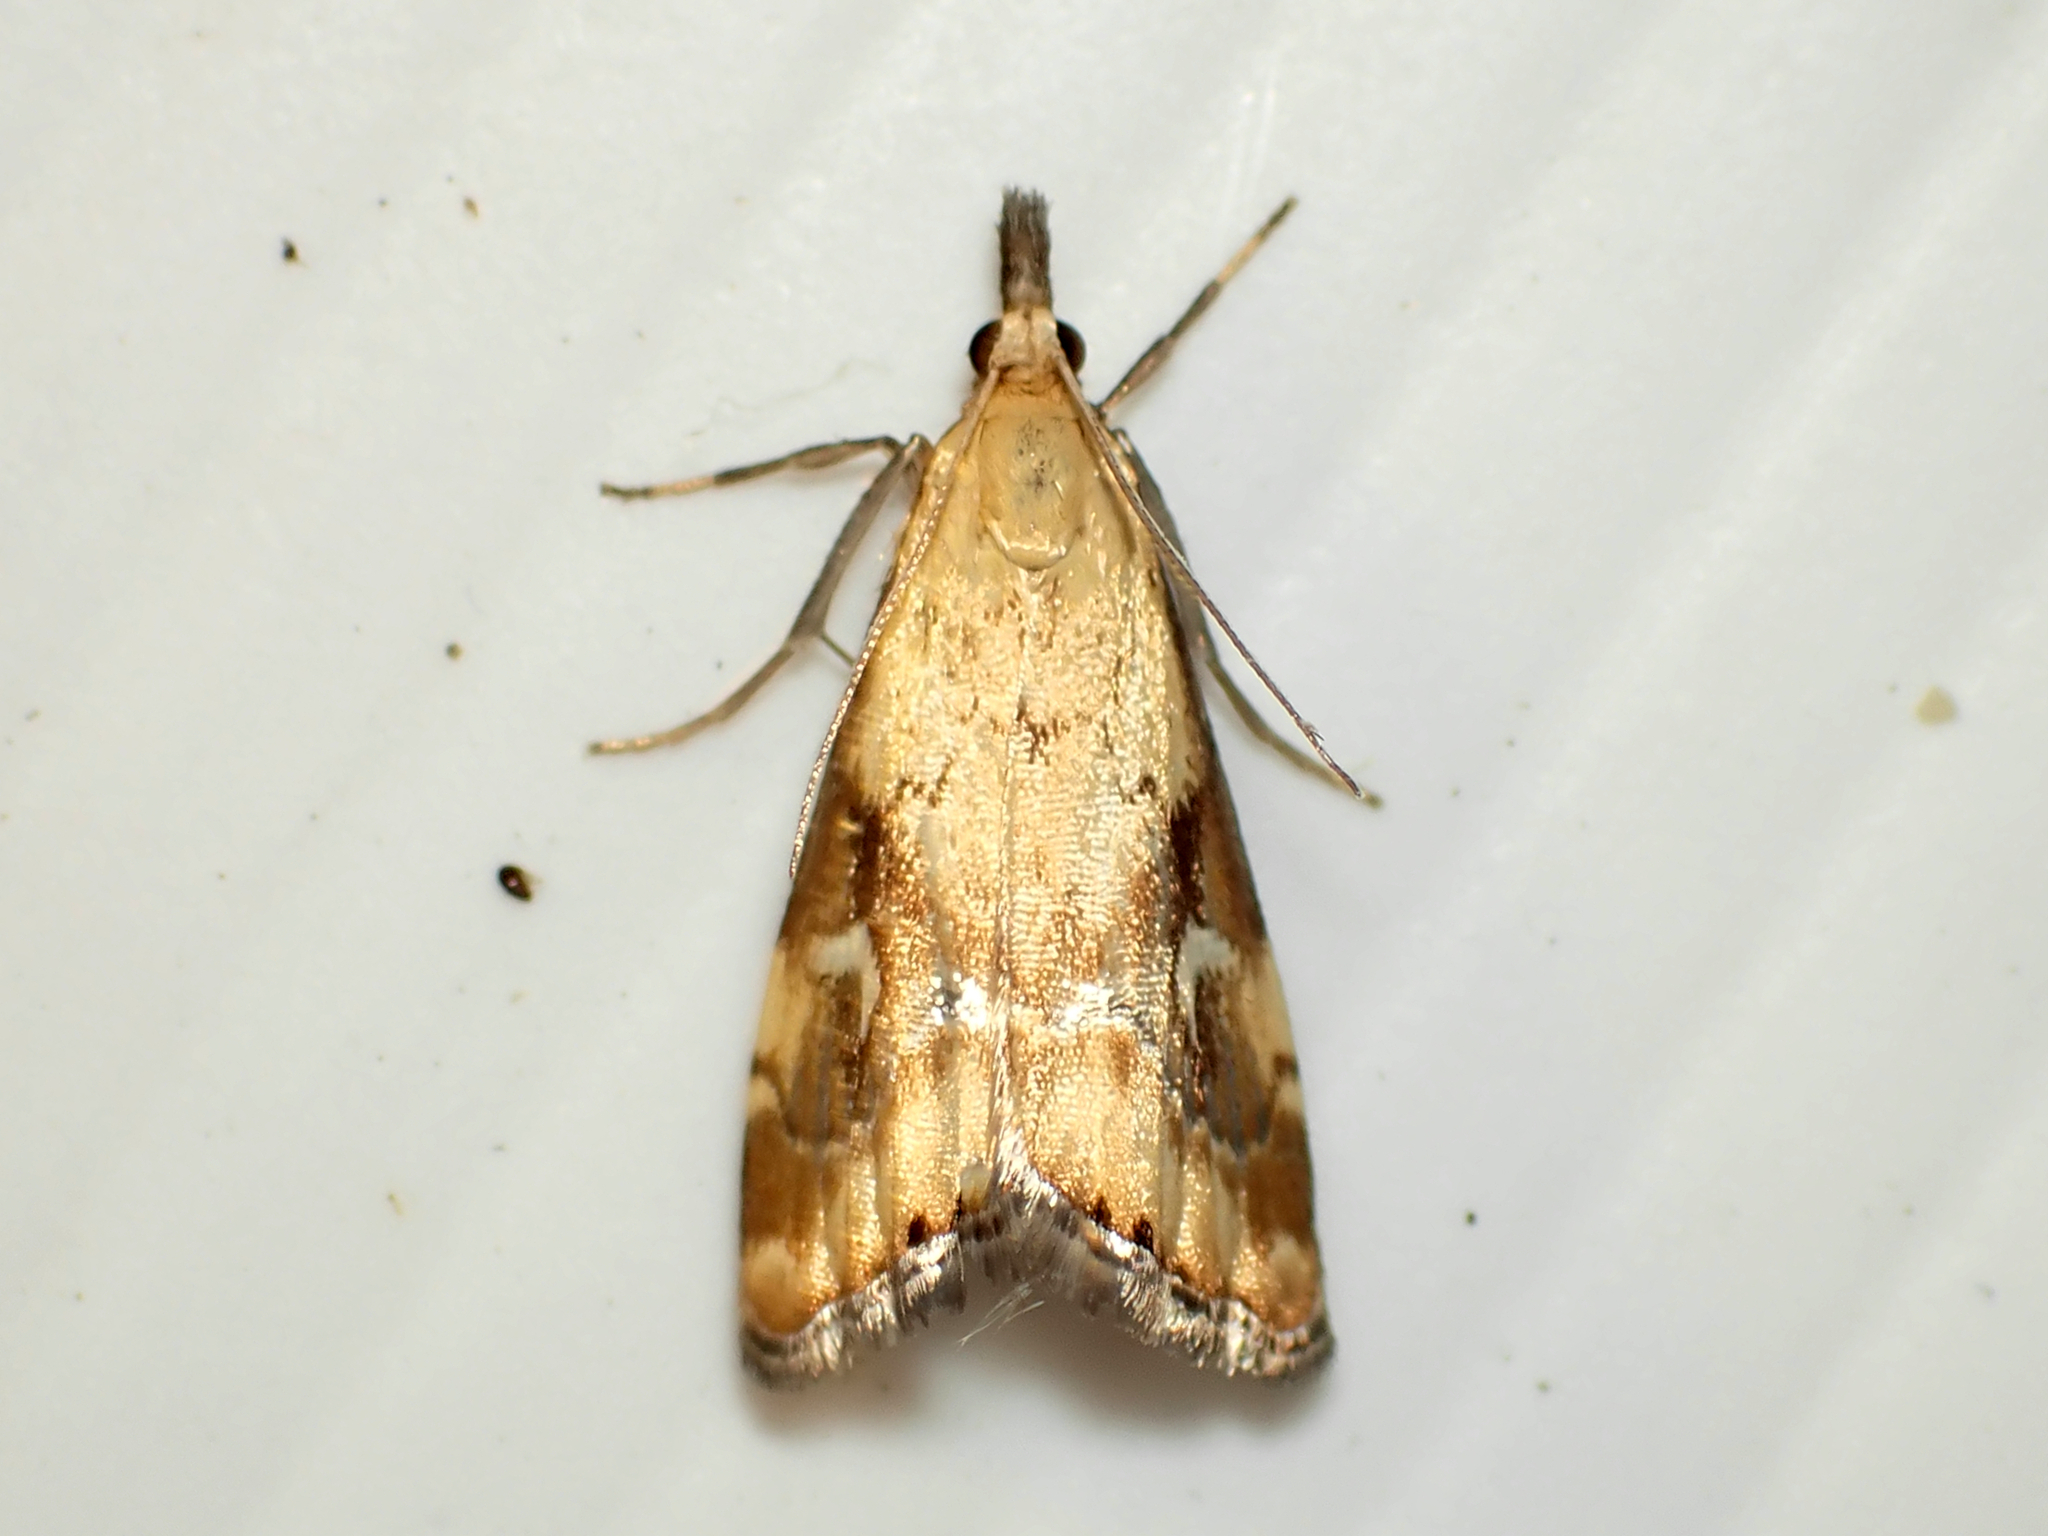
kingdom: Animalia
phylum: Arthropoda
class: Insecta
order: Lepidoptera
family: Crambidae
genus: Glaucocharis
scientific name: Glaucocharis lepidella
